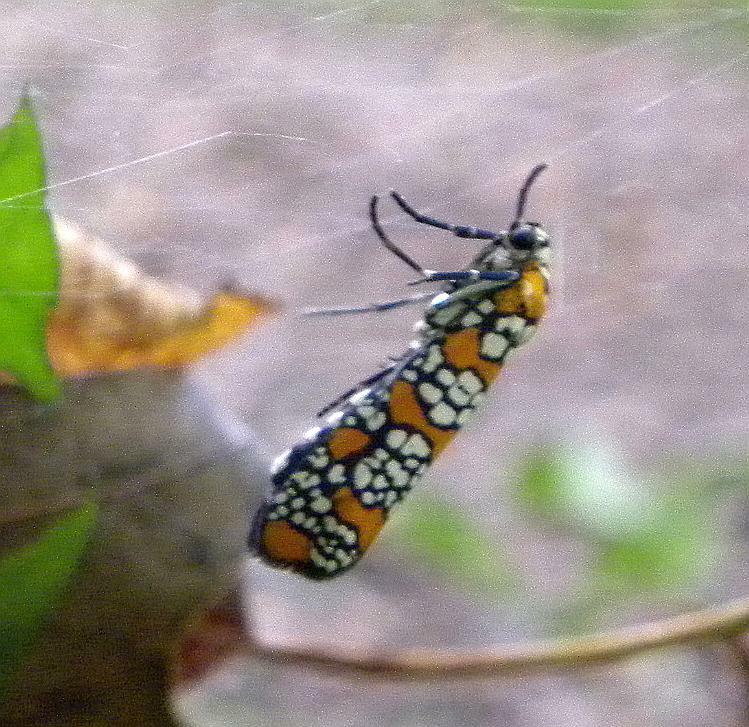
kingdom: Animalia
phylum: Arthropoda
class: Insecta
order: Lepidoptera
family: Attevidae
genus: Atteva
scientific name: Atteva punctella
